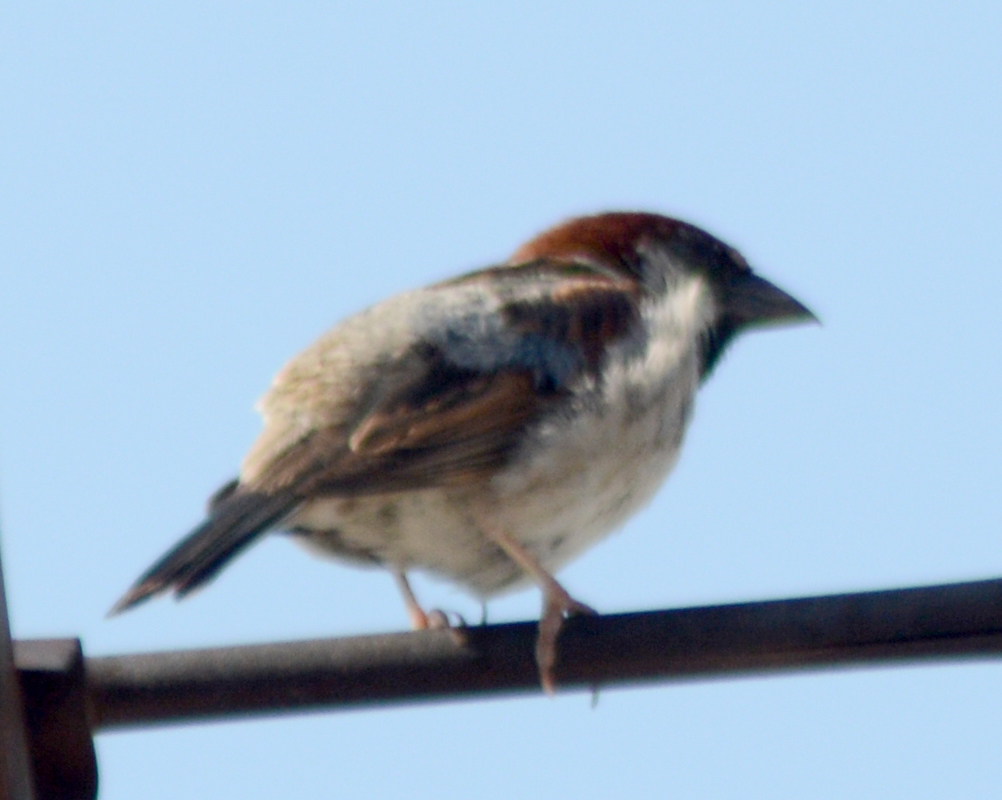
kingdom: Animalia
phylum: Chordata
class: Aves
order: Passeriformes
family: Passeridae
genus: Passer
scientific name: Passer domesticus
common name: House sparrow
